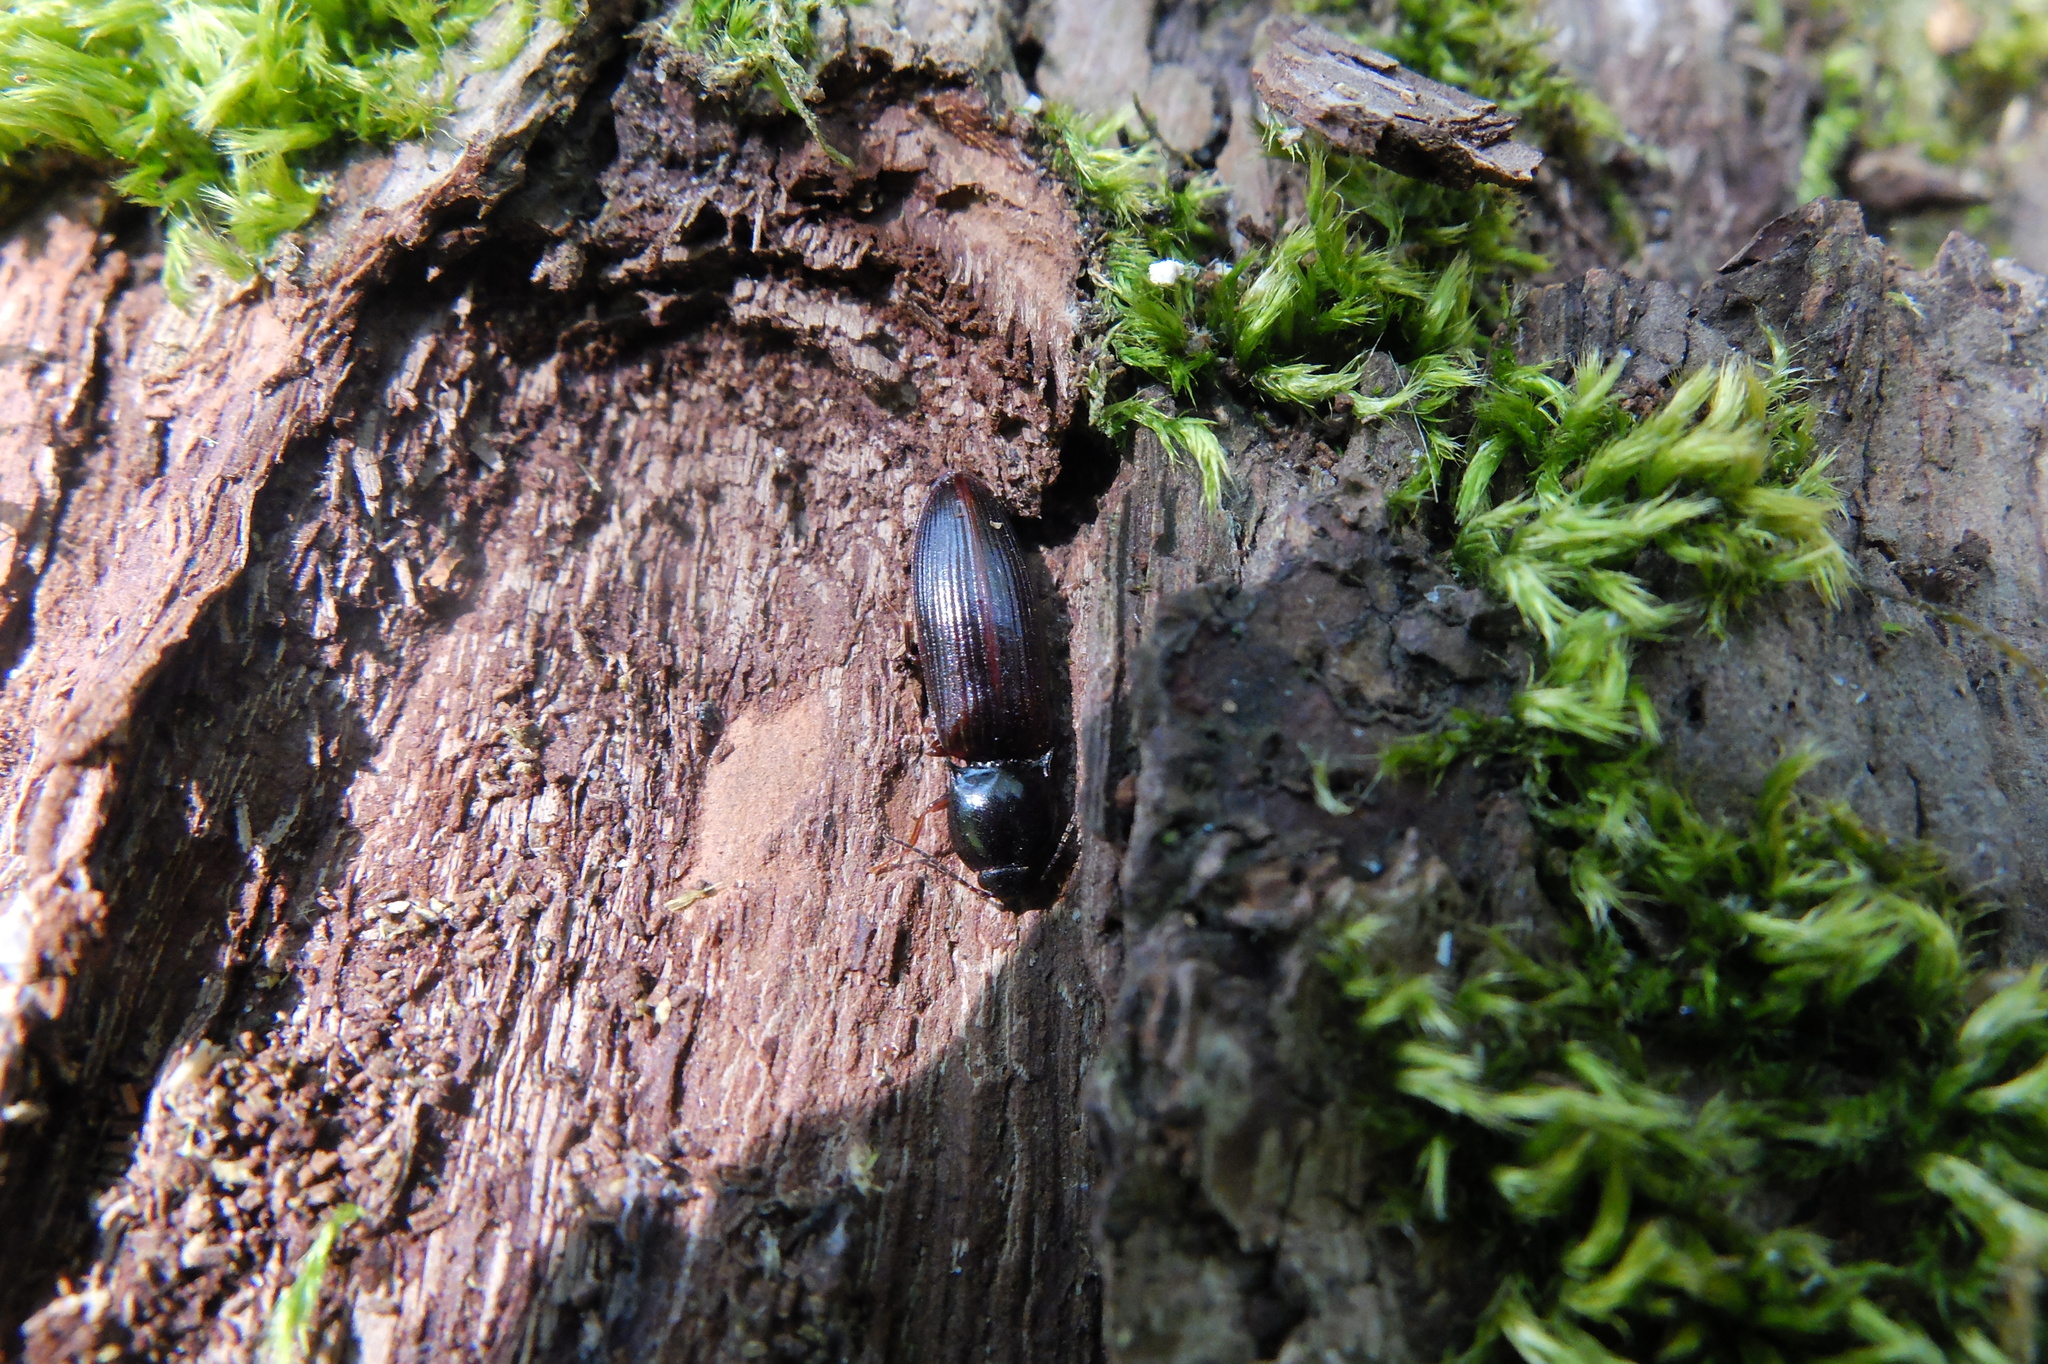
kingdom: Animalia
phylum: Arthropoda
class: Insecta
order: Coleoptera
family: Elateridae
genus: Hypoganus
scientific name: Hypoganus inunctus
